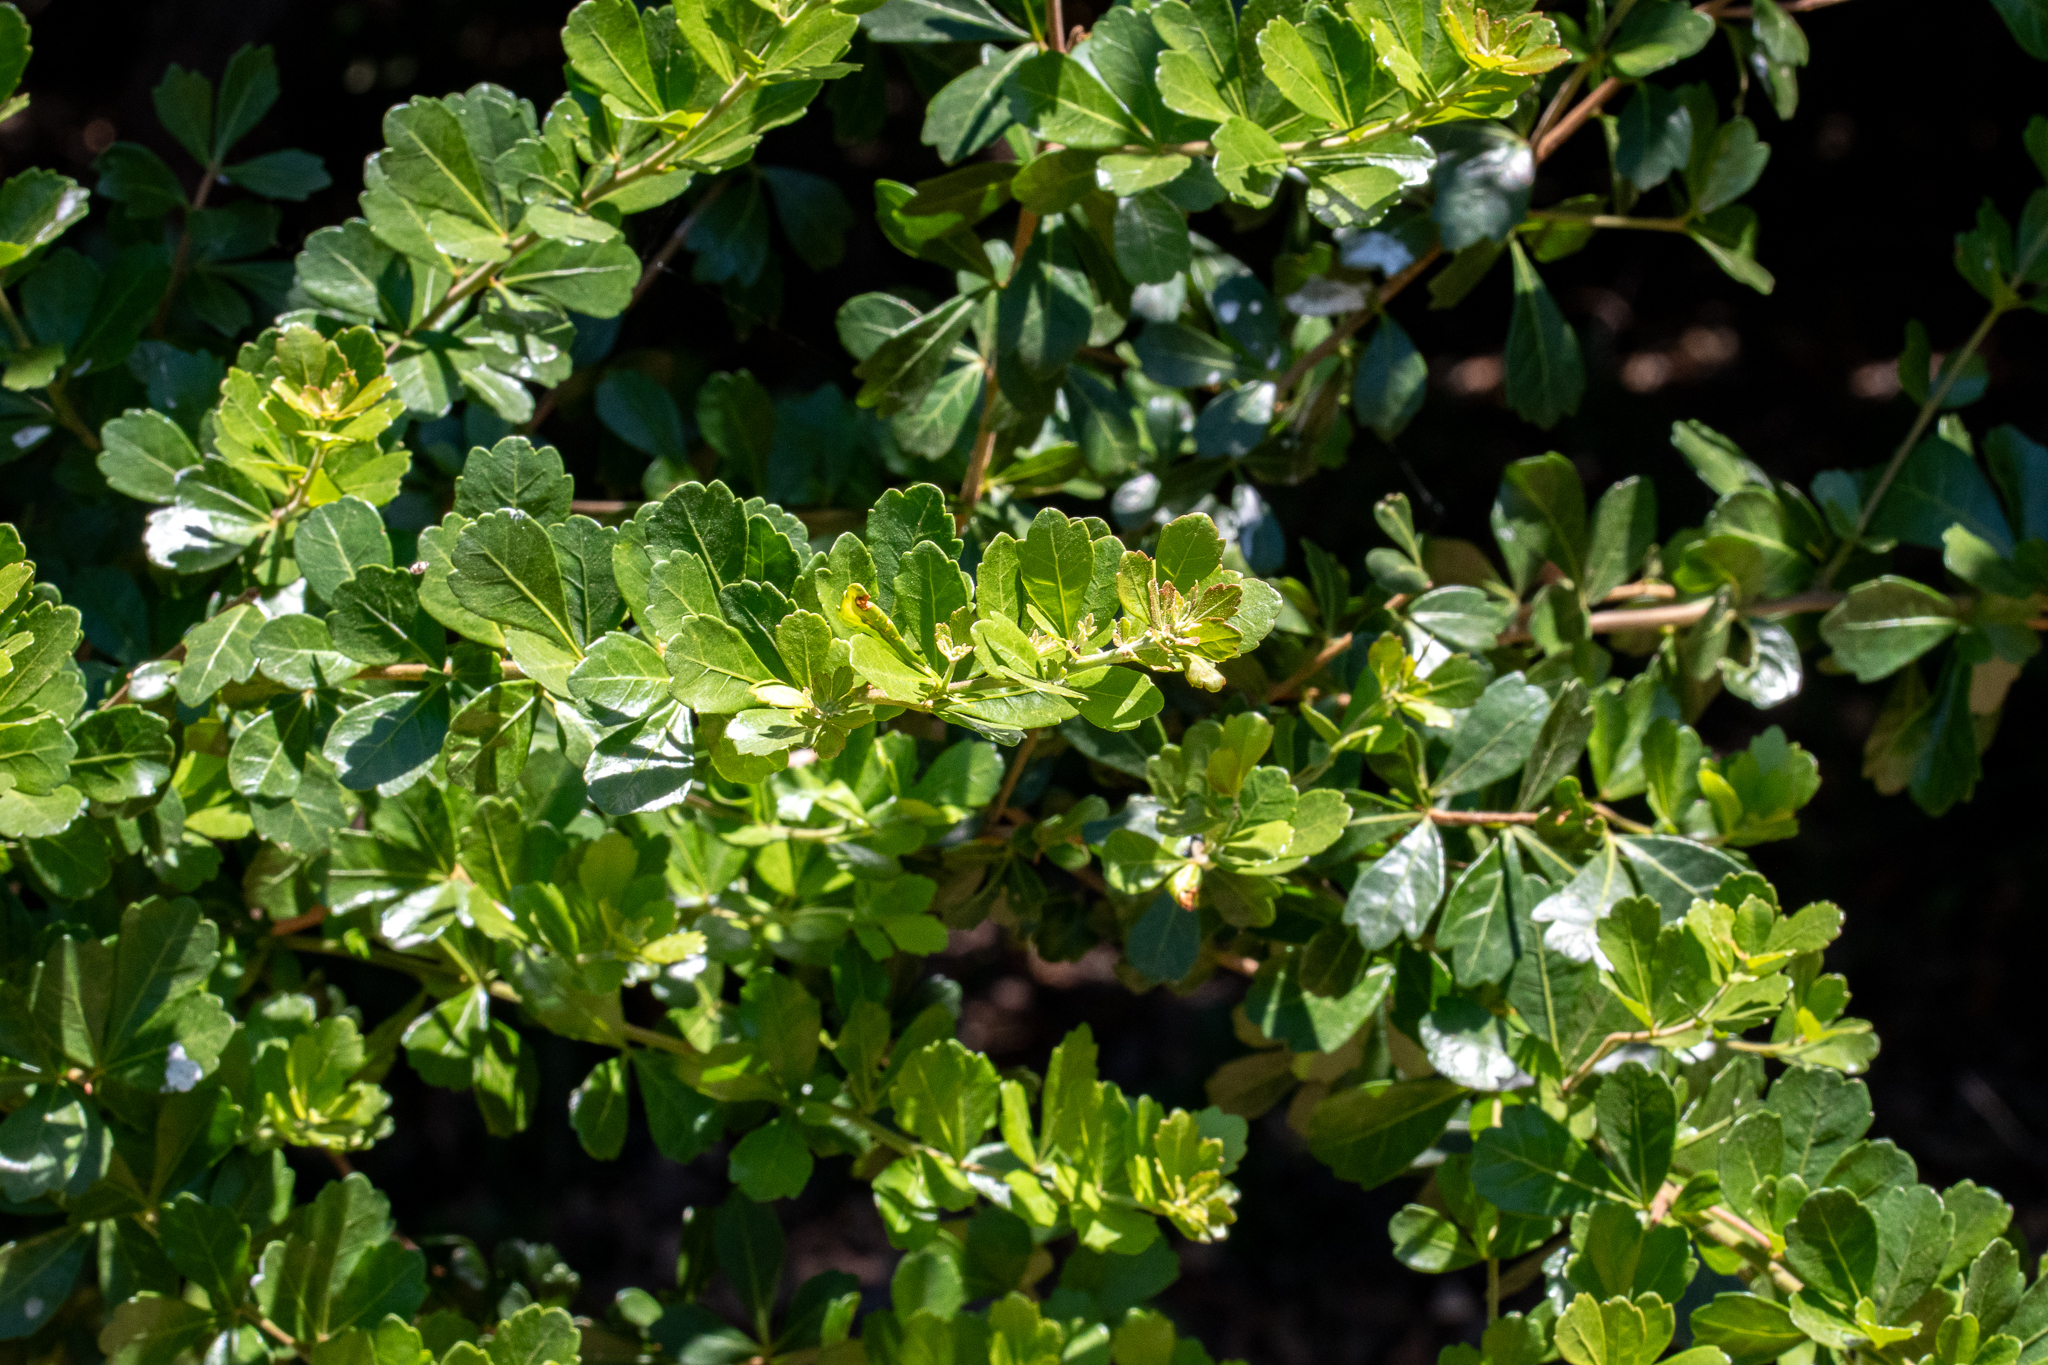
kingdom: Plantae
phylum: Tracheophyta
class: Magnoliopsida
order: Sapindales
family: Anacardiaceae
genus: Searsia
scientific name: Searsia crenata
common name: Crowberry
